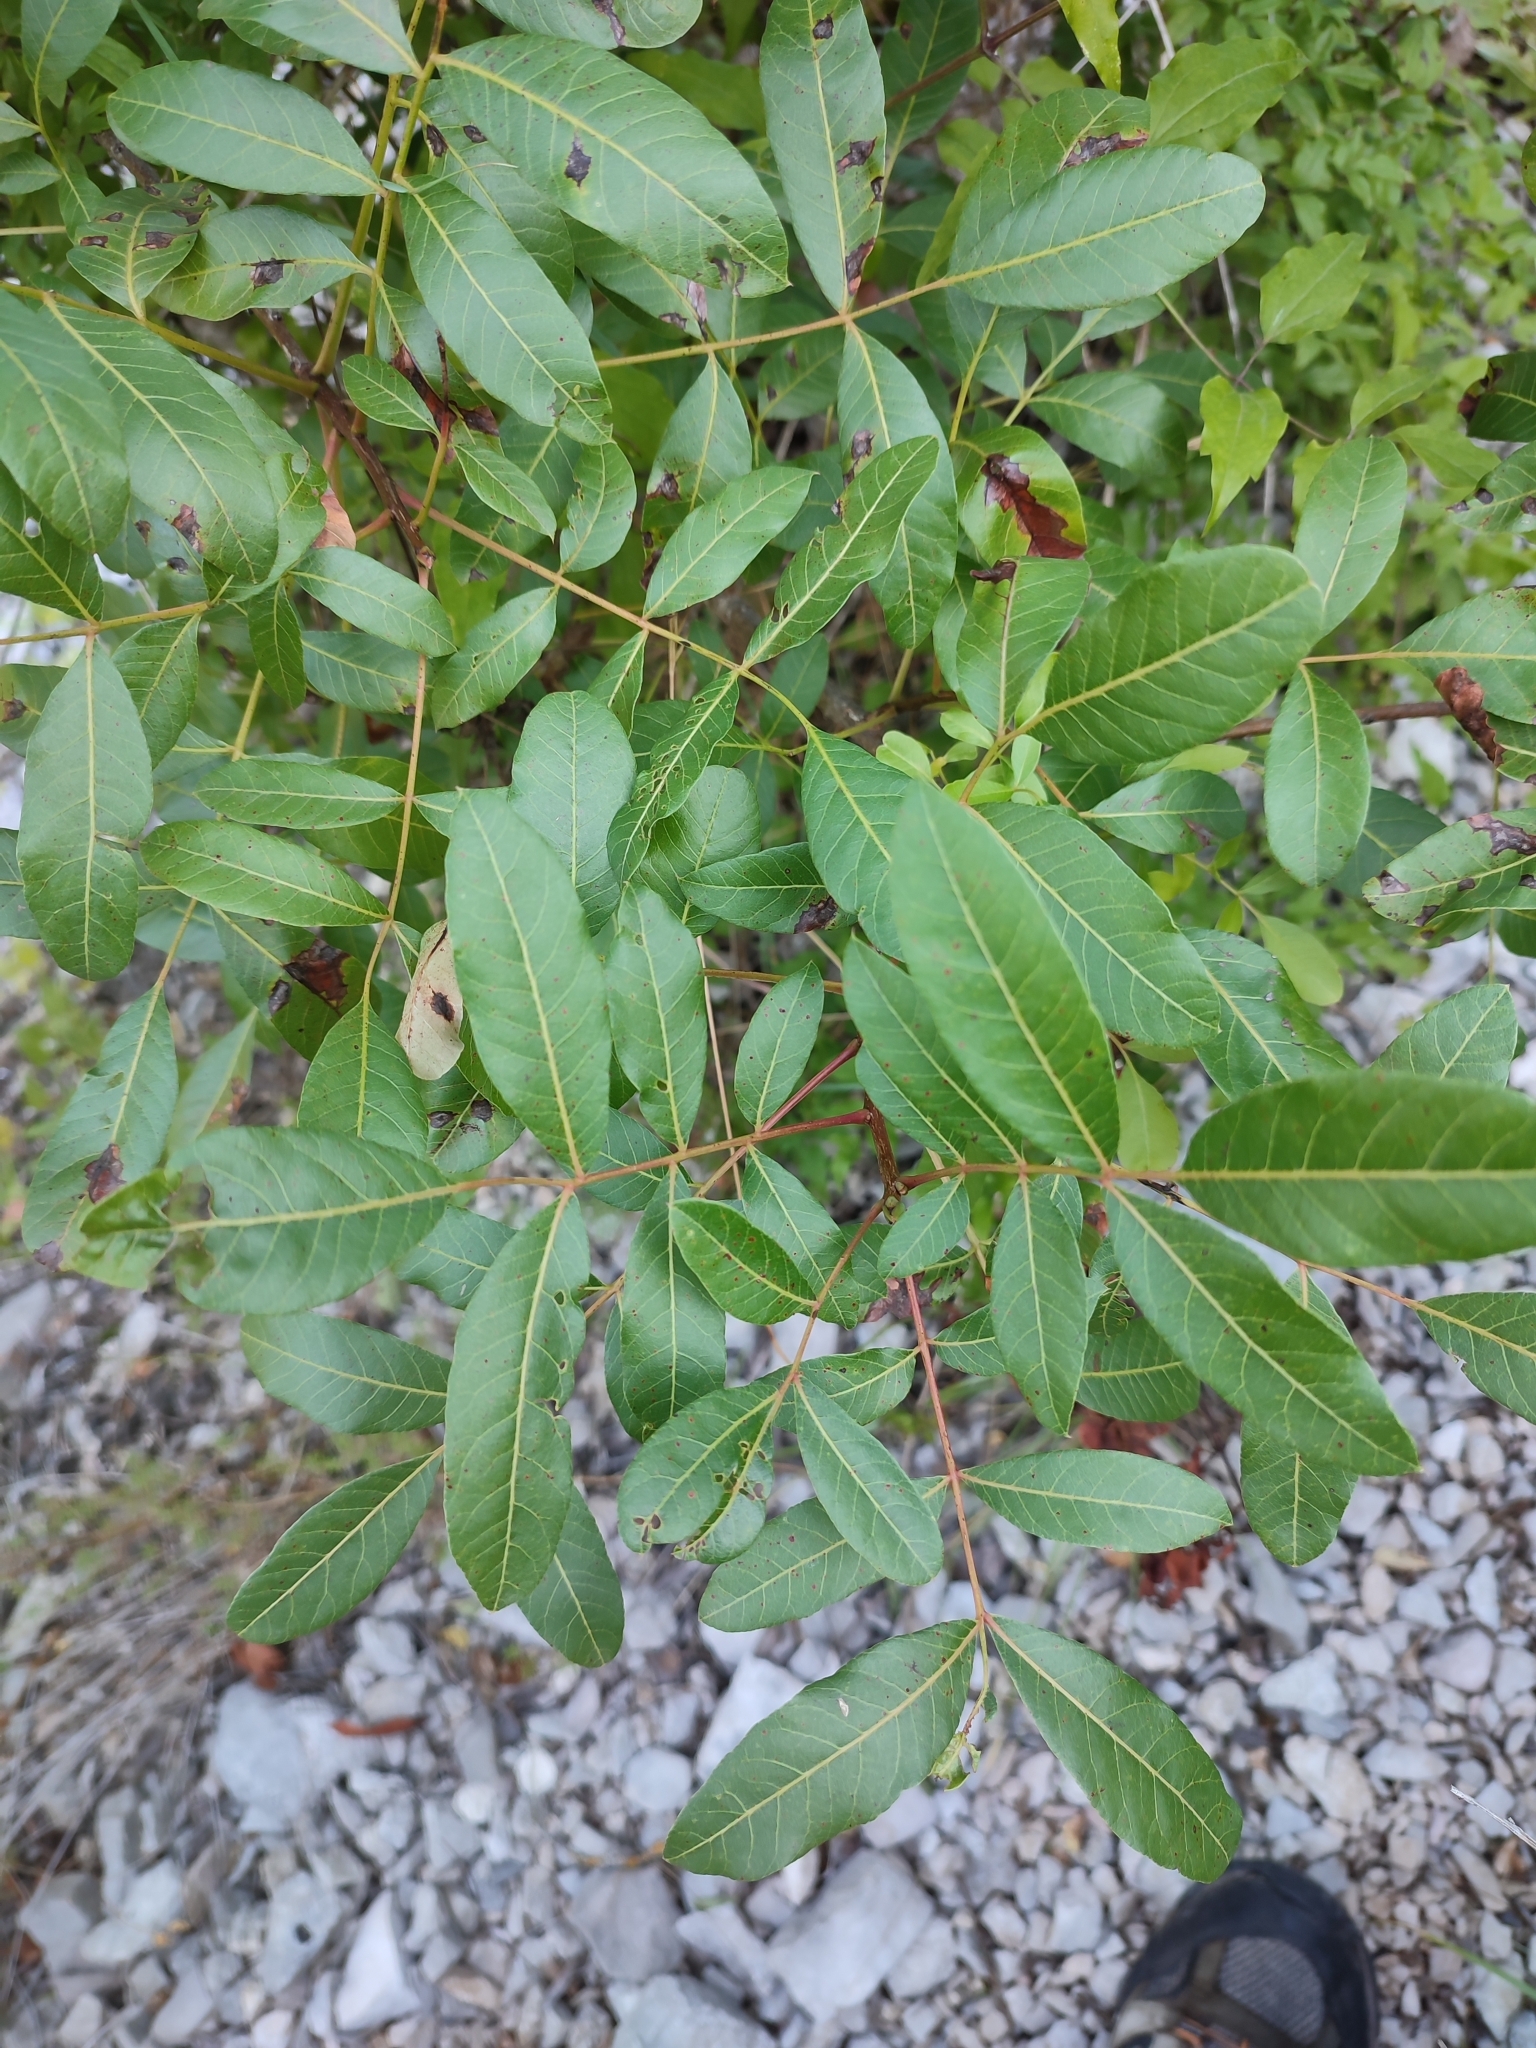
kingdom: Plantae
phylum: Tracheophyta
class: Magnoliopsida
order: Sapindales
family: Anacardiaceae
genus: Pistacia
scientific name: Pistacia terebinthus
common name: Terebinth
